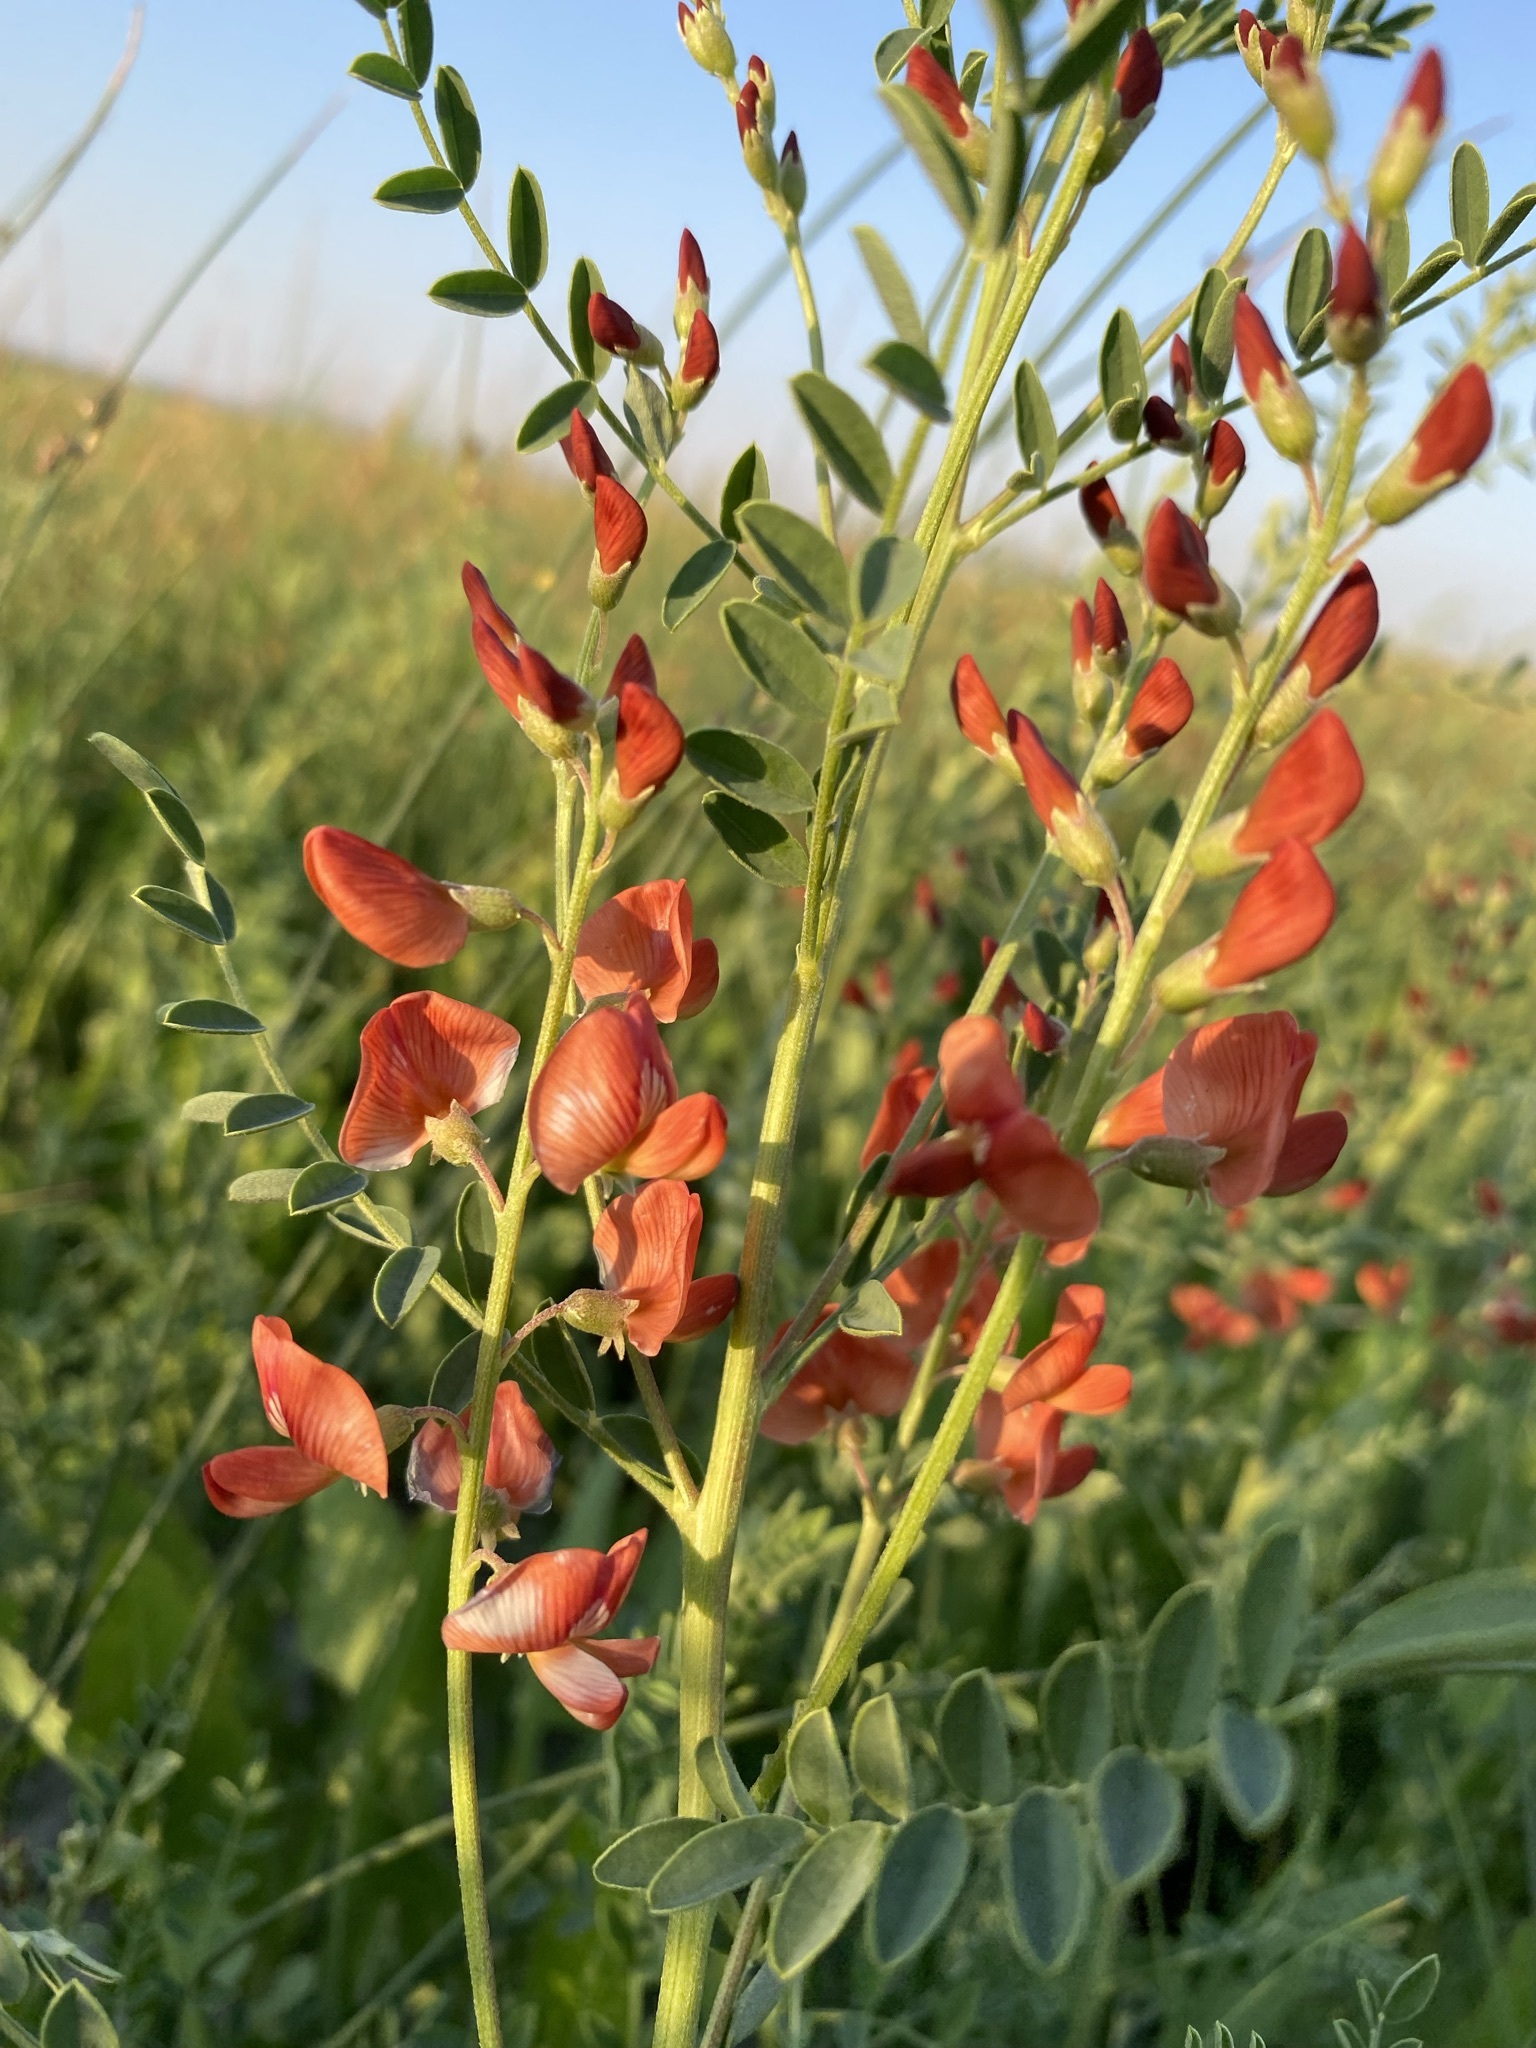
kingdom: Plantae
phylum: Tracheophyta
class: Magnoliopsida
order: Fabales
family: Fabaceae
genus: Sphaerophysa
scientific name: Sphaerophysa salsula
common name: Alkali swainsonpea
